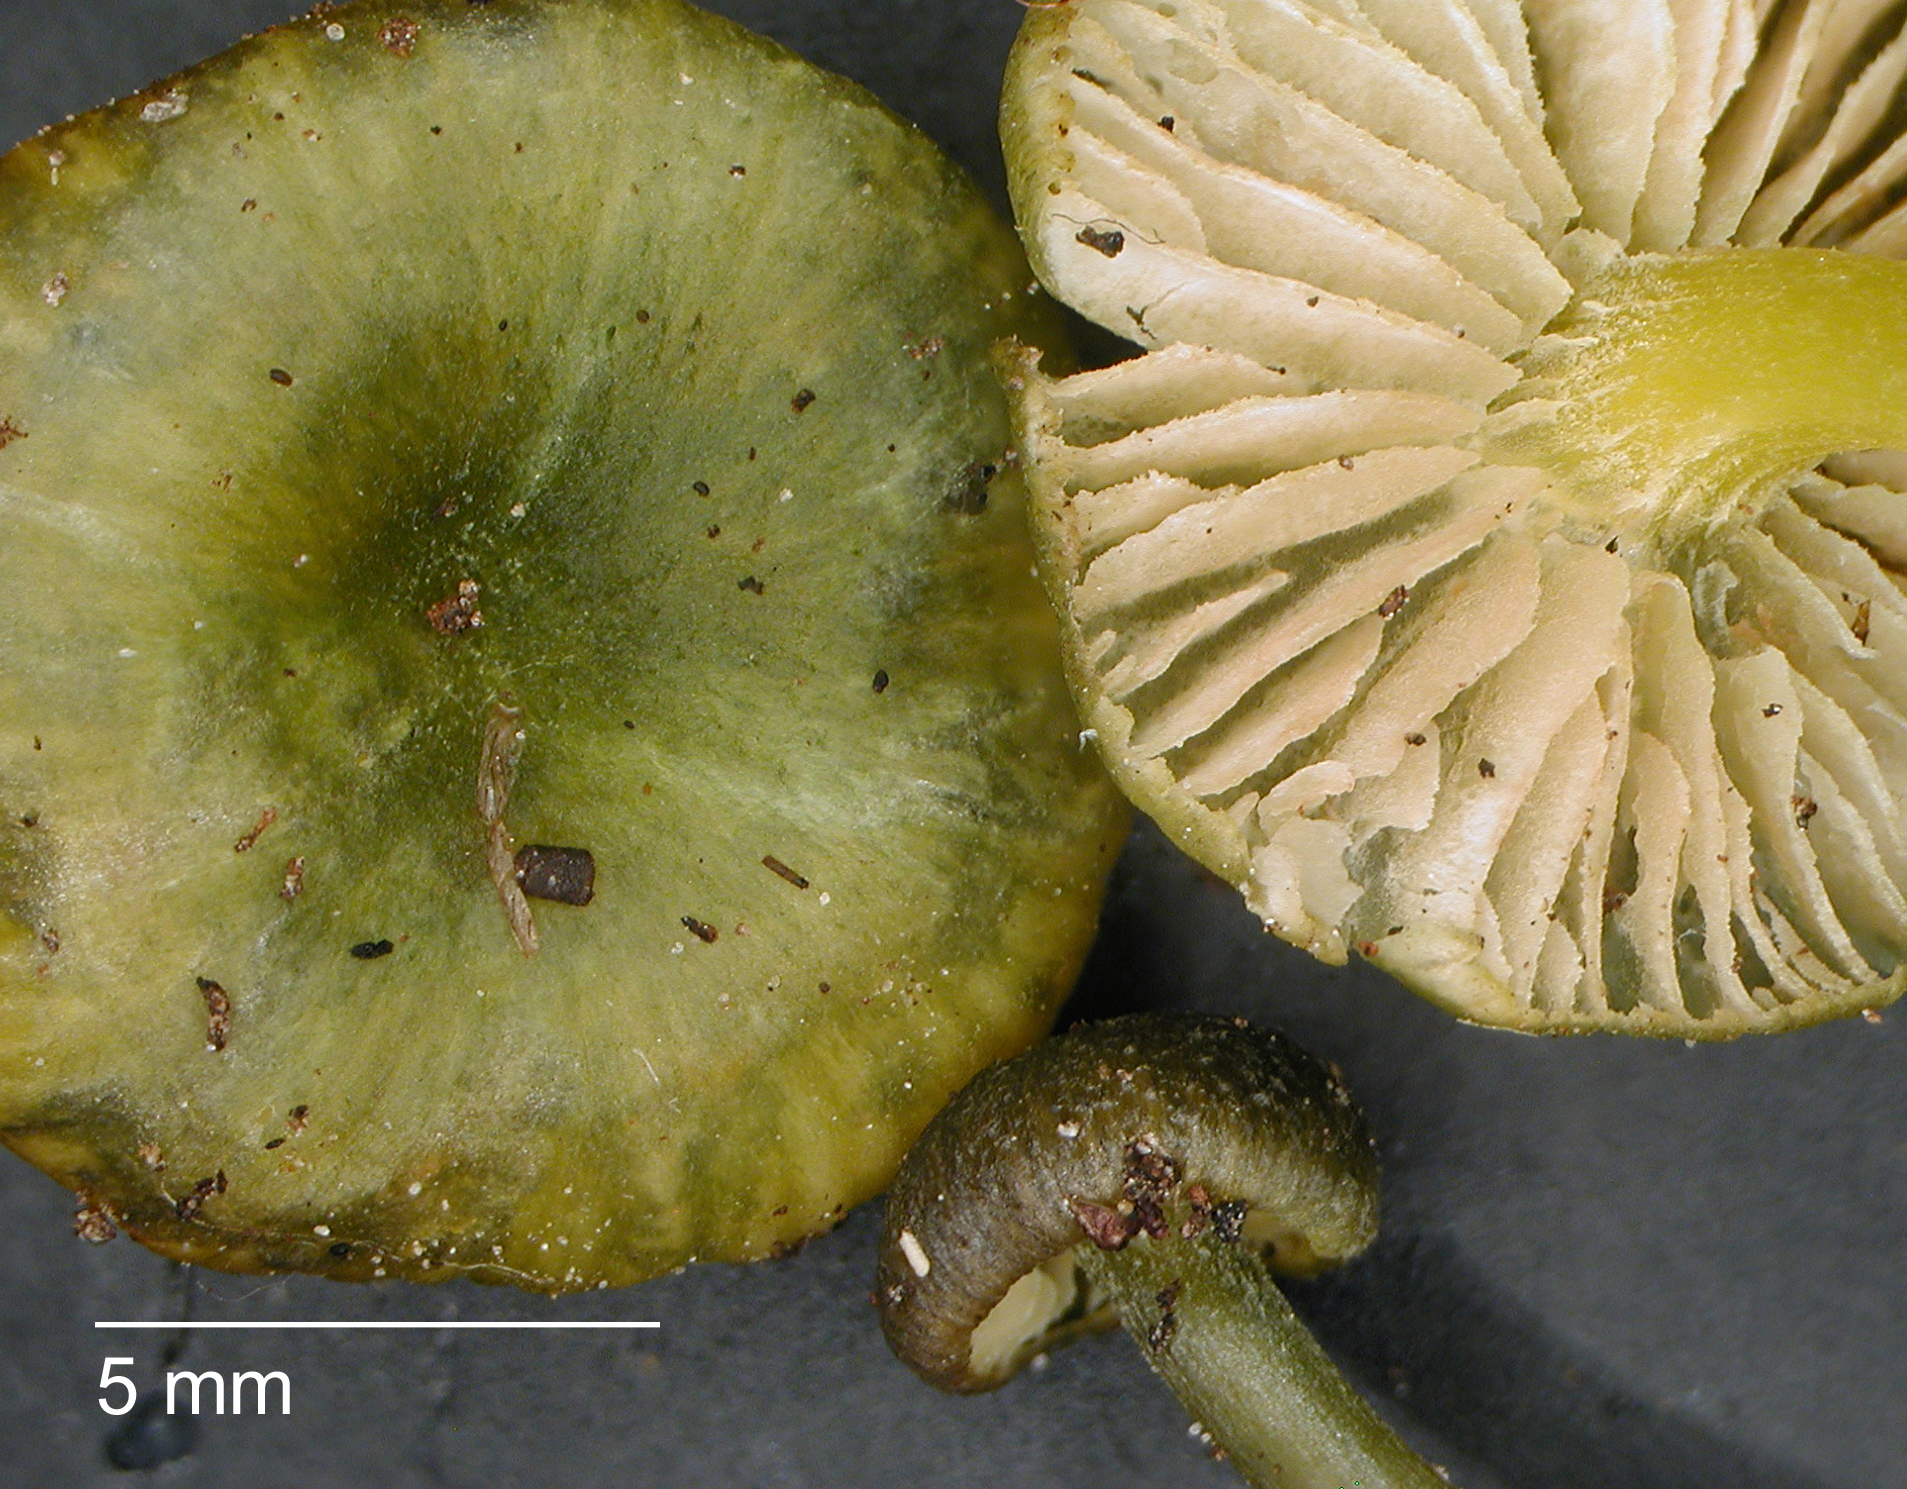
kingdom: Fungi
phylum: Basidiomycota
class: Agaricomycetes
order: Agaricales
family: Entolomataceae
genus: Entoloma
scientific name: Entoloma glaucoroseum
